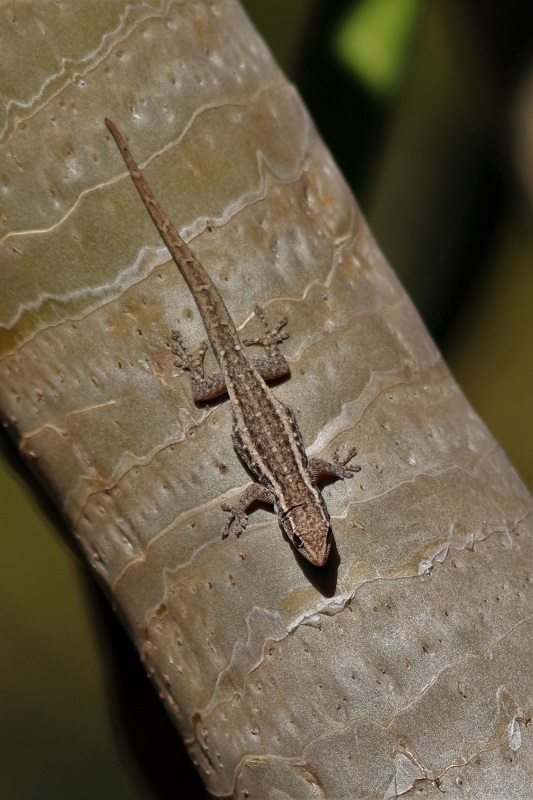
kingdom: Animalia
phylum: Chordata
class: Squamata
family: Gekkonidae
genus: Lygodactylus
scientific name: Lygodactylus capensis
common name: Cape dwarf gecko
